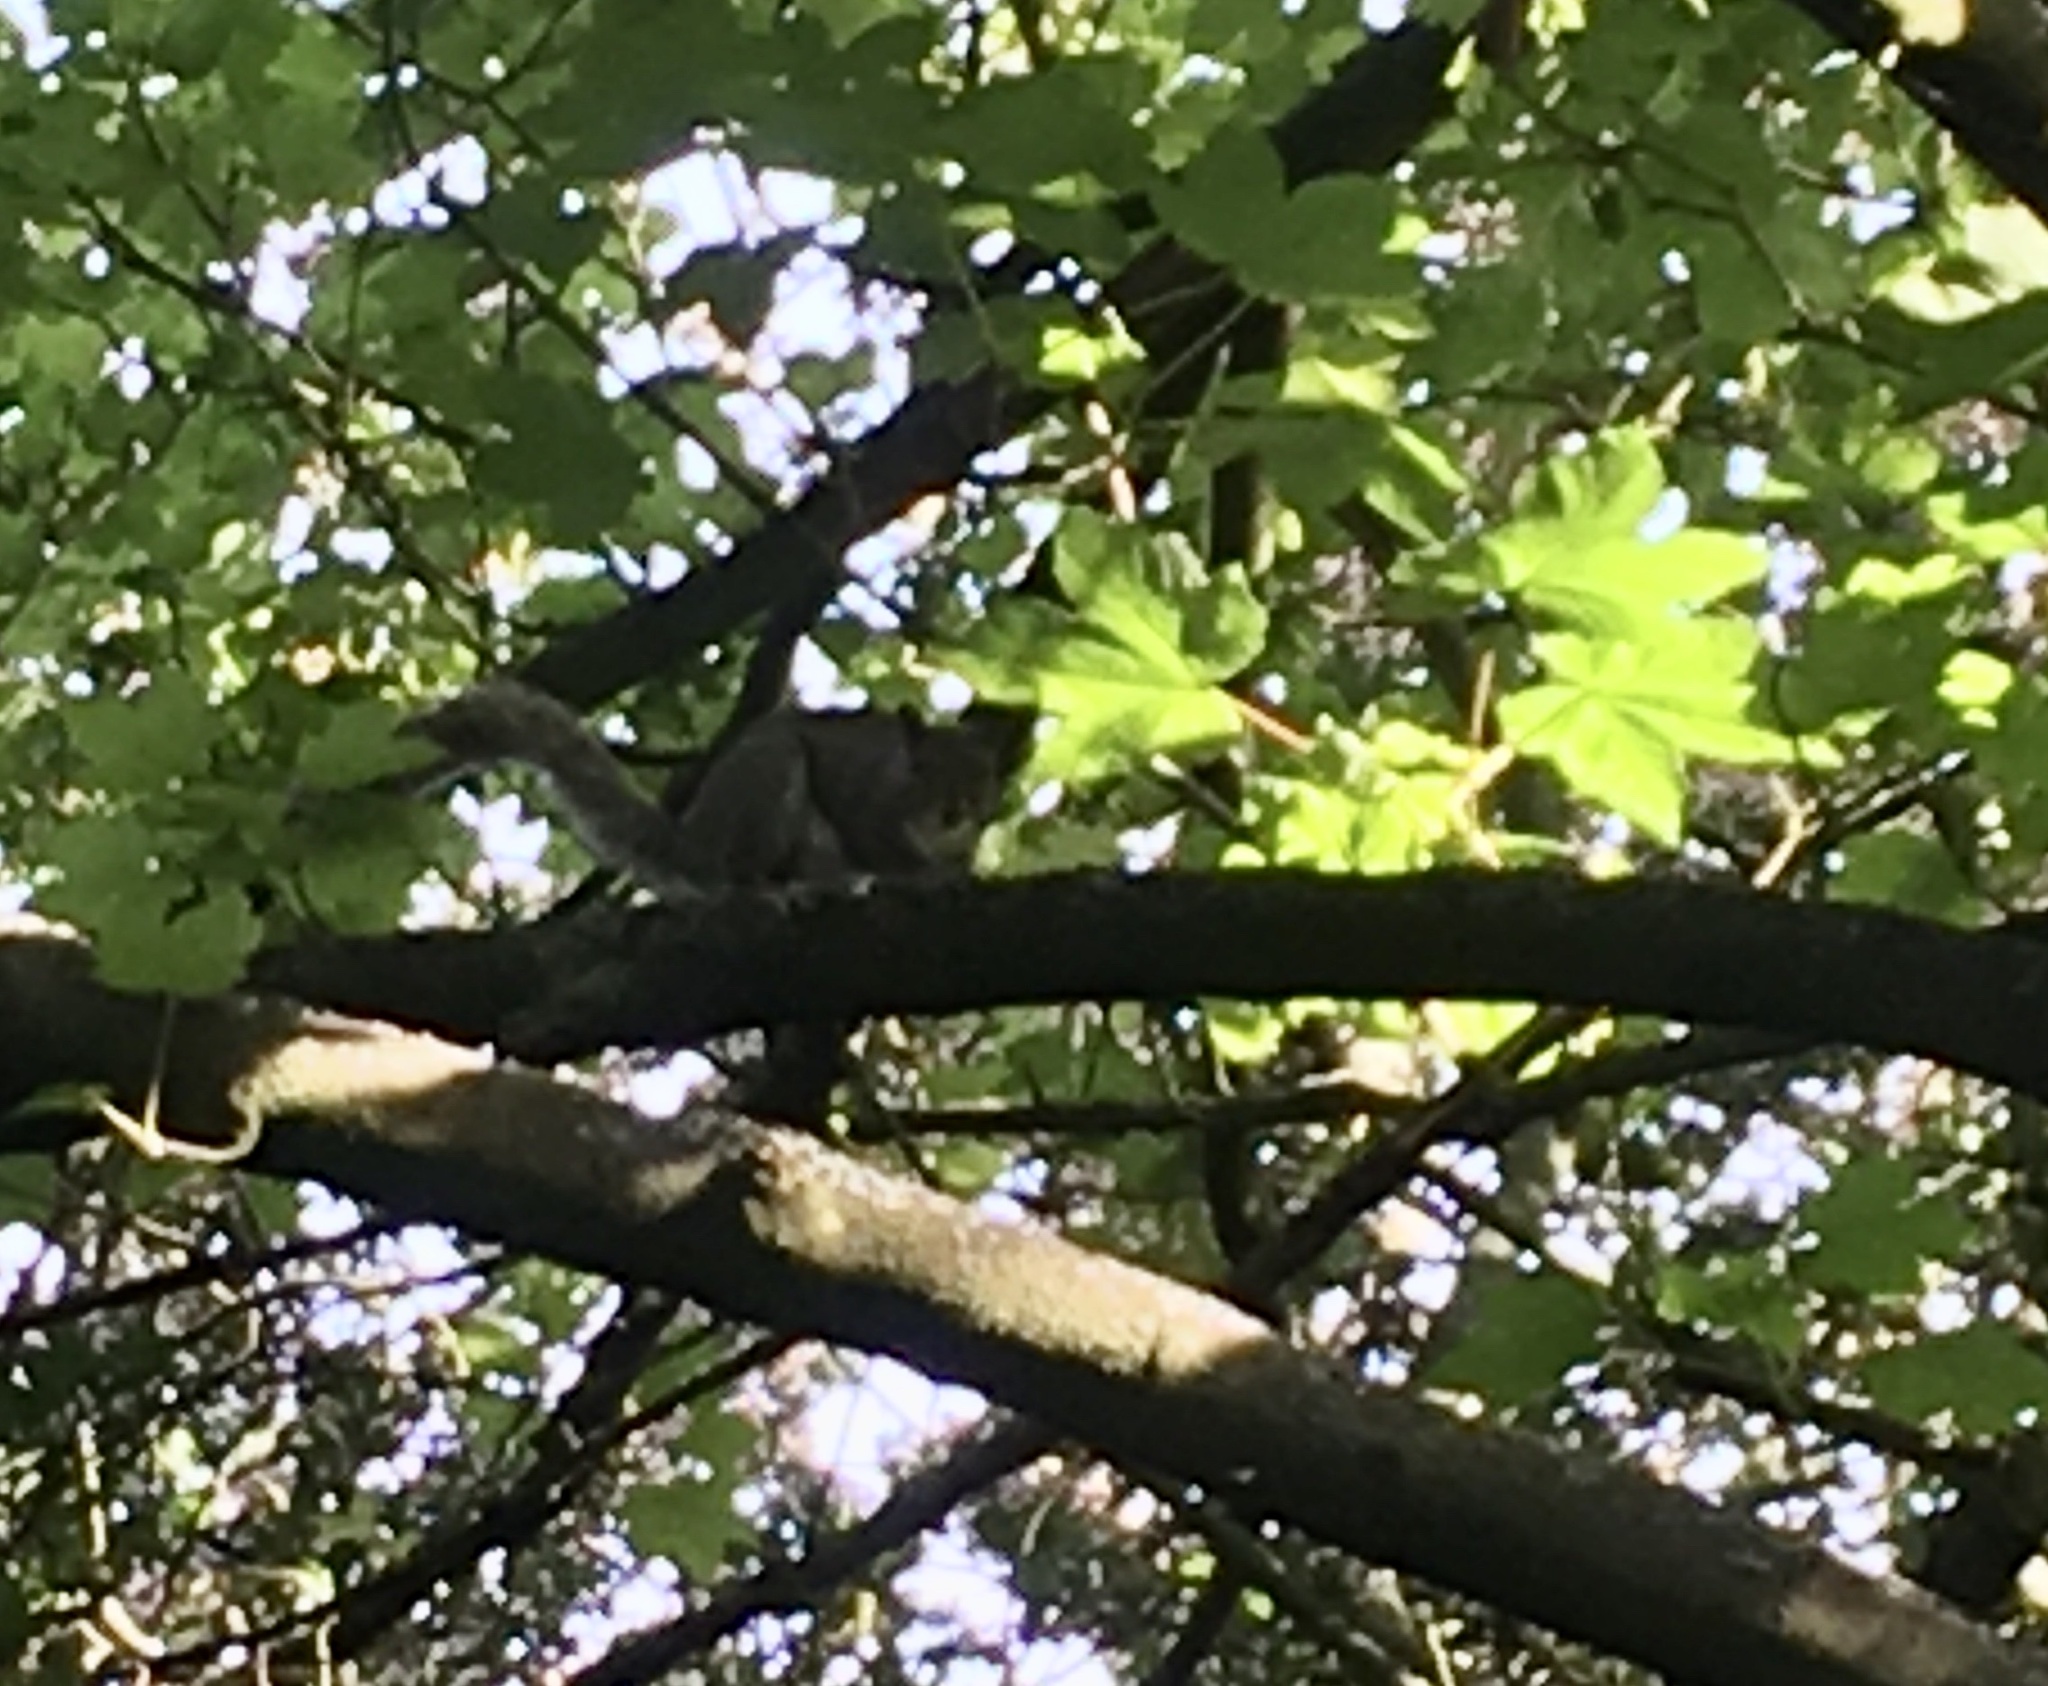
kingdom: Animalia
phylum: Chordata
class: Mammalia
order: Rodentia
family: Sciuridae
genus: Sciurus
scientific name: Sciurus carolinensis
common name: Eastern gray squirrel
